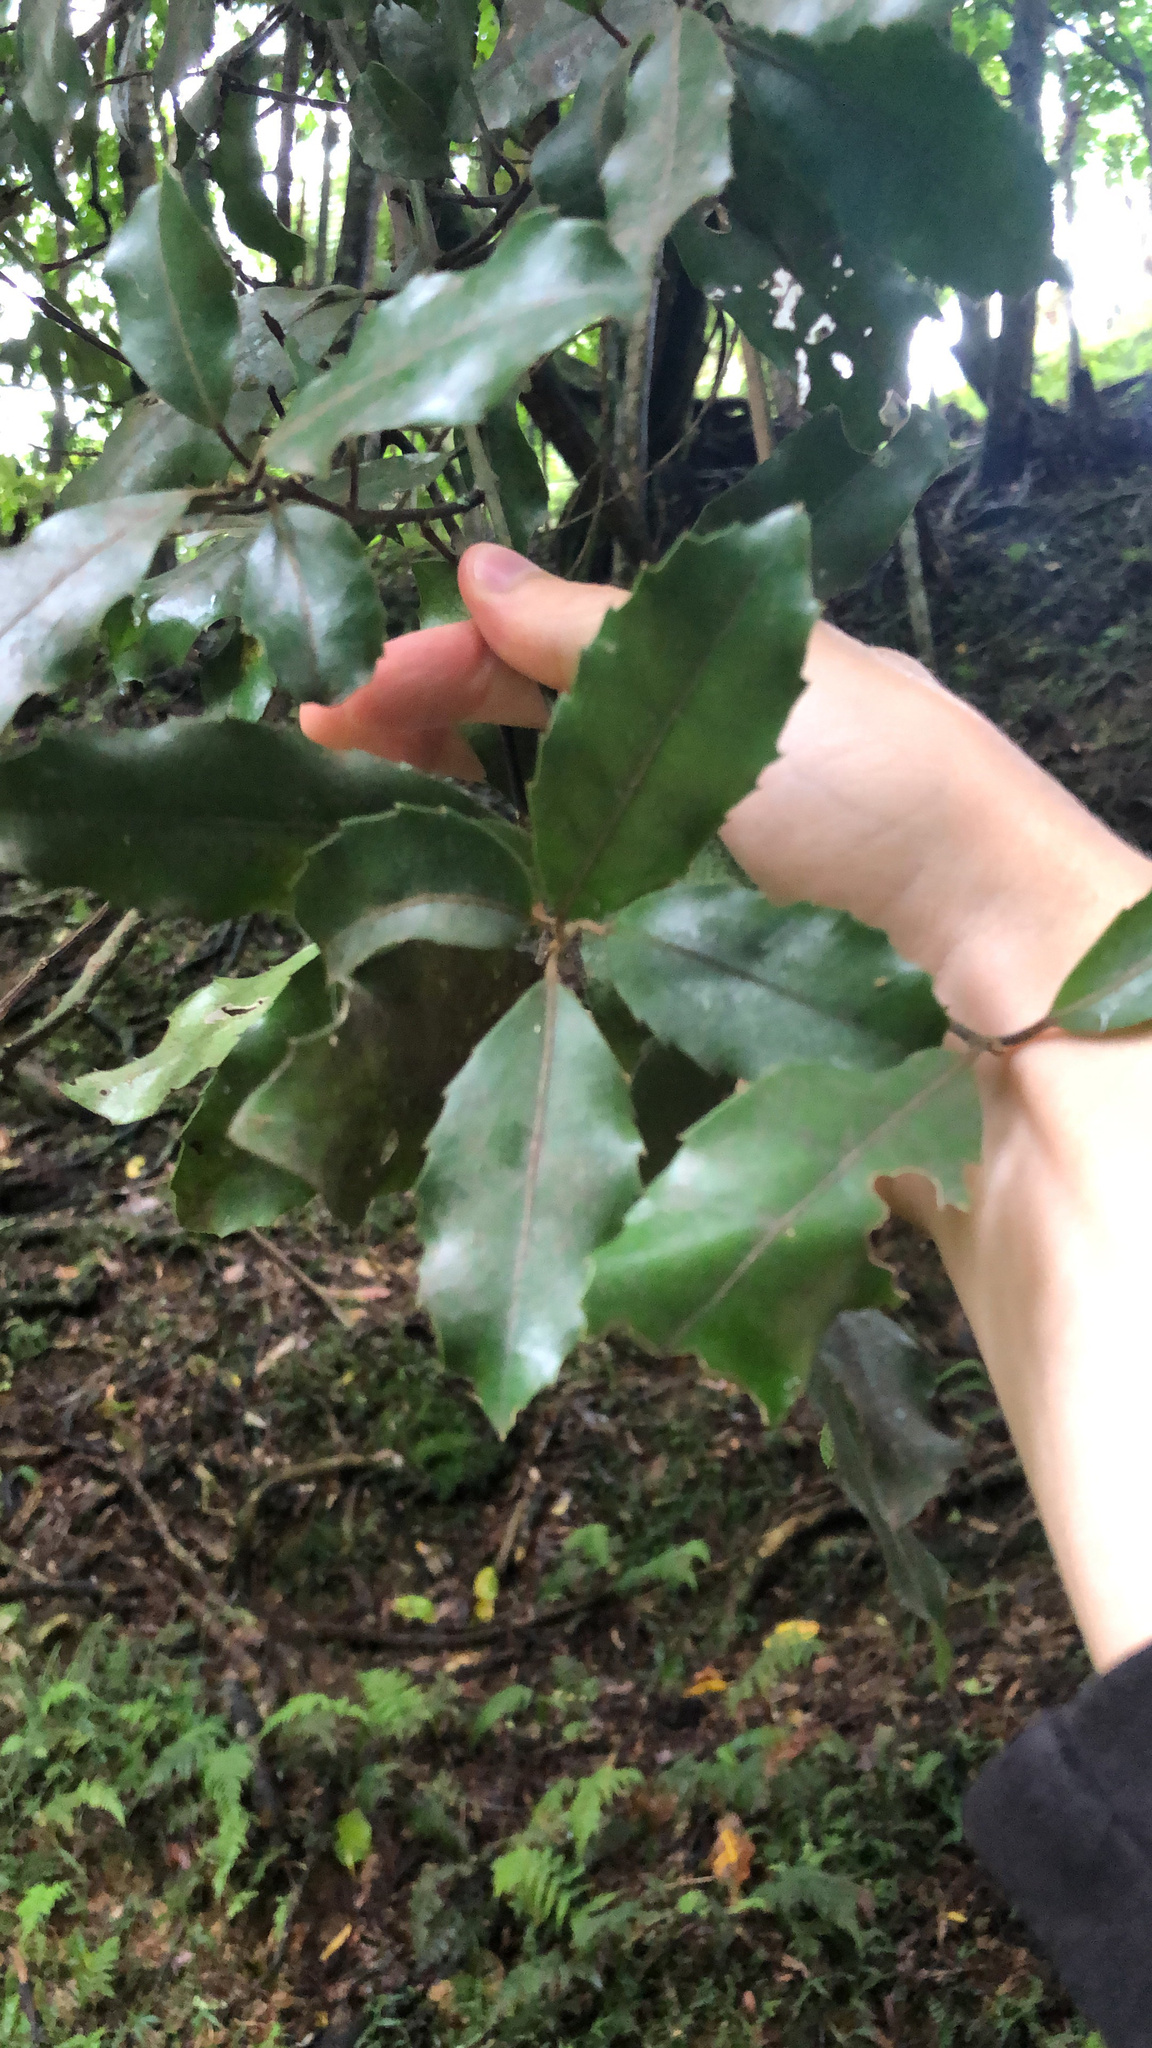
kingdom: Plantae
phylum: Tracheophyta
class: Magnoliopsida
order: Laurales
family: Monimiaceae
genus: Hedycarya
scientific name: Hedycarya arborea
